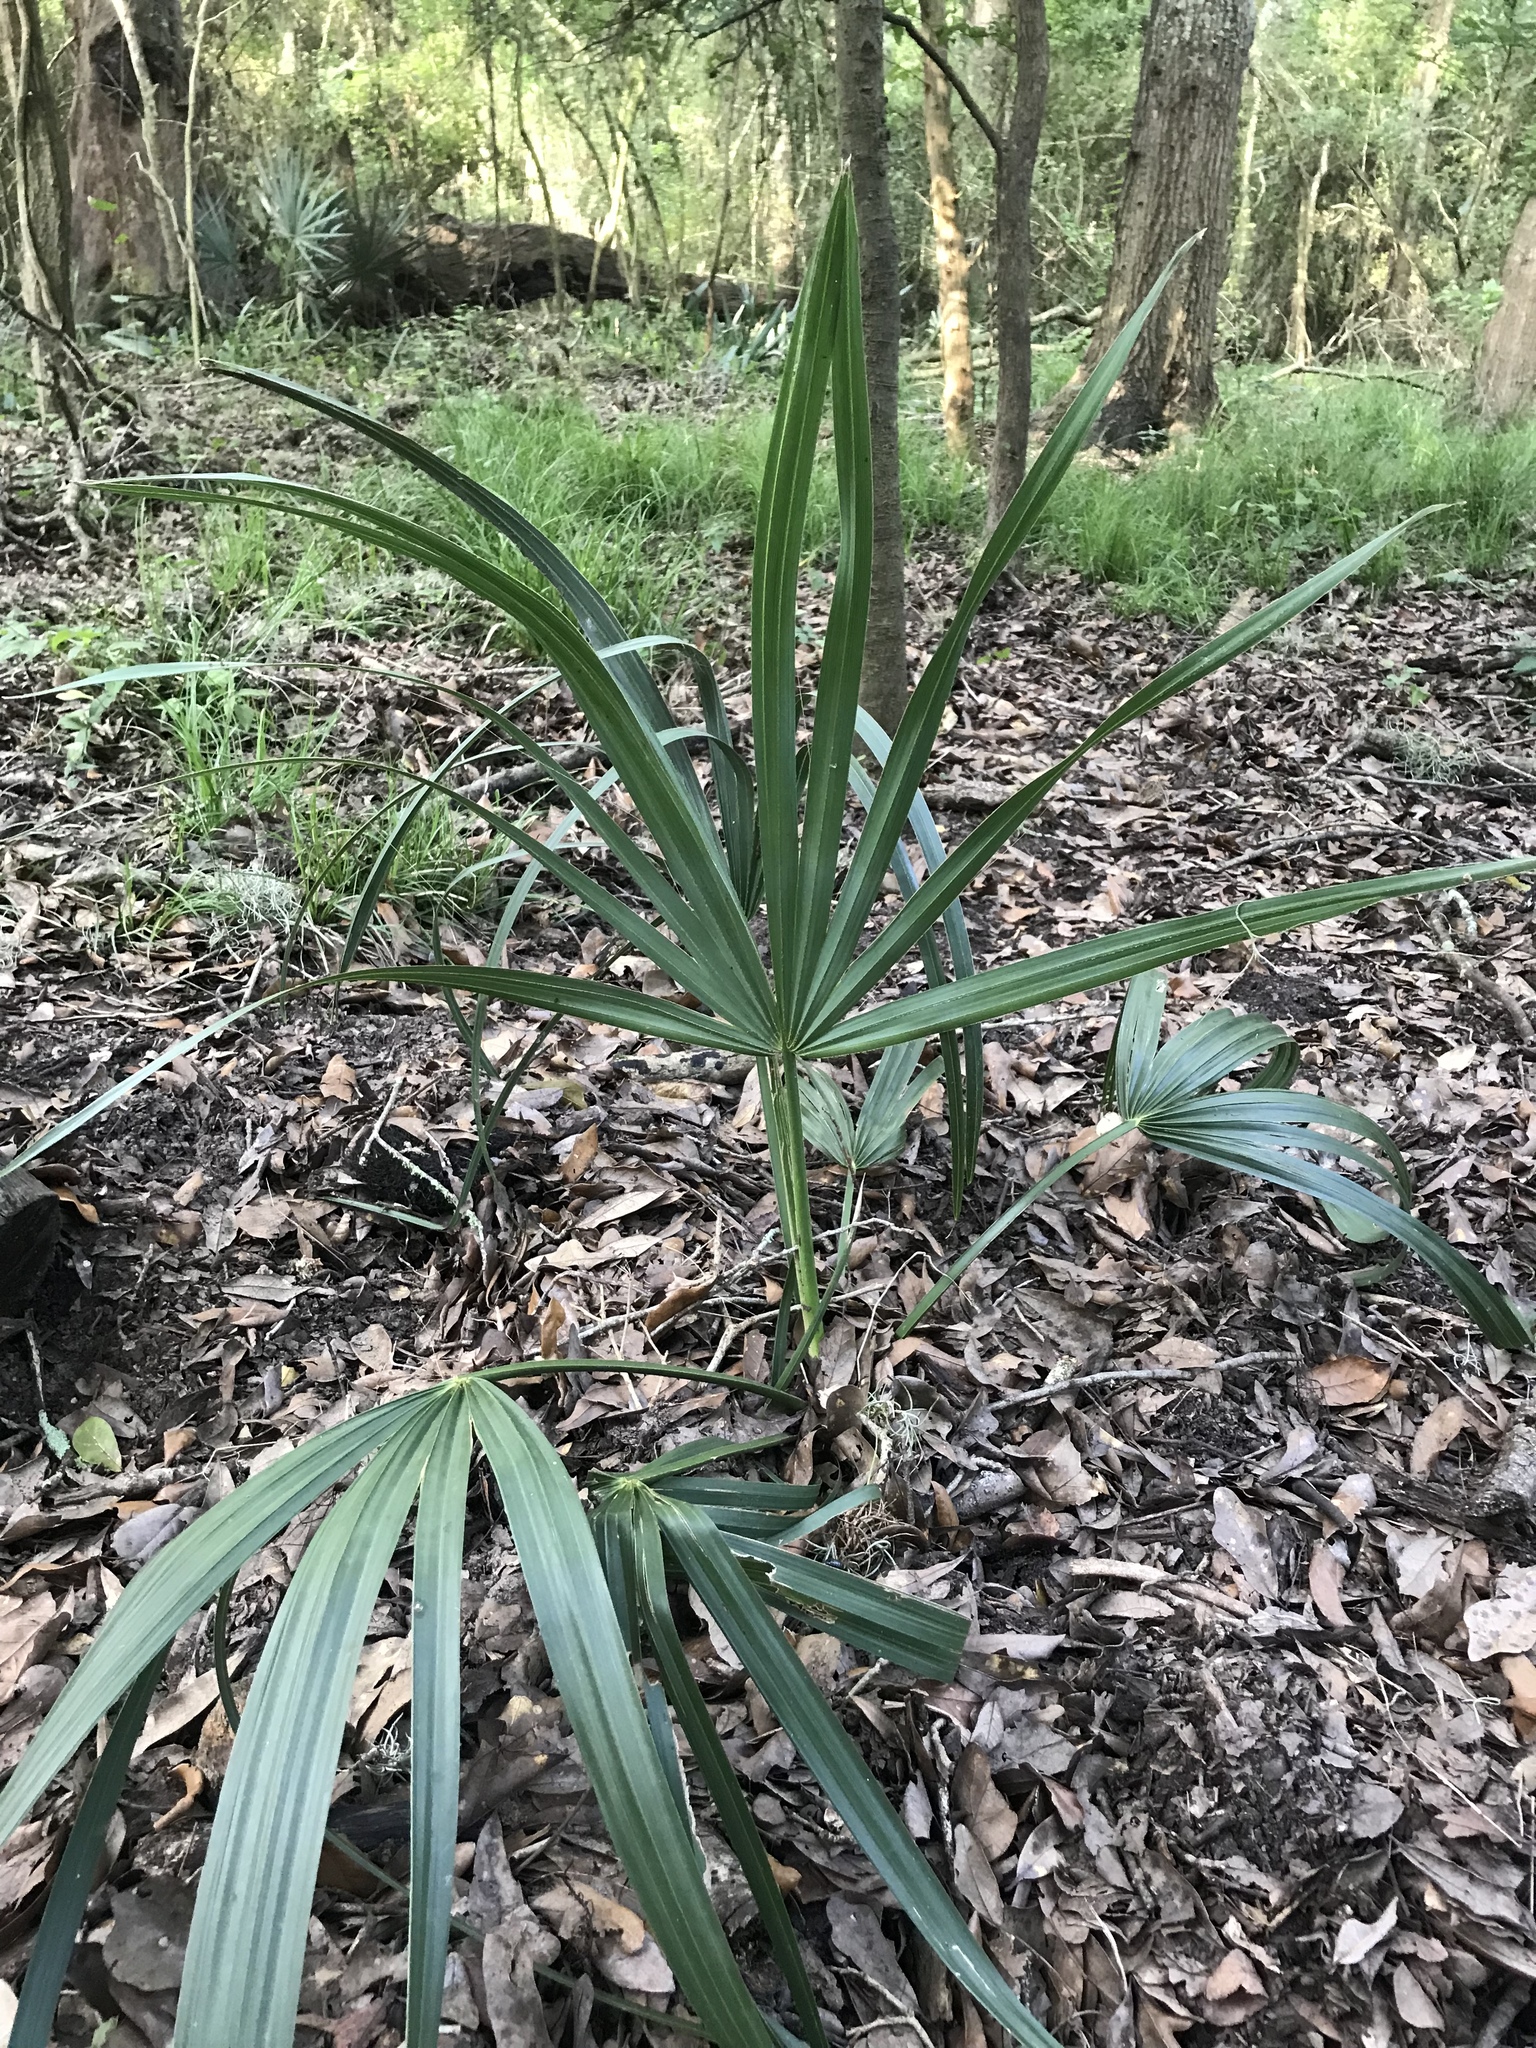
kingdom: Plantae
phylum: Tracheophyta
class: Liliopsida
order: Arecales
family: Arecaceae
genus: Sabal
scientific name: Sabal minor
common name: Dwarf palmetto
